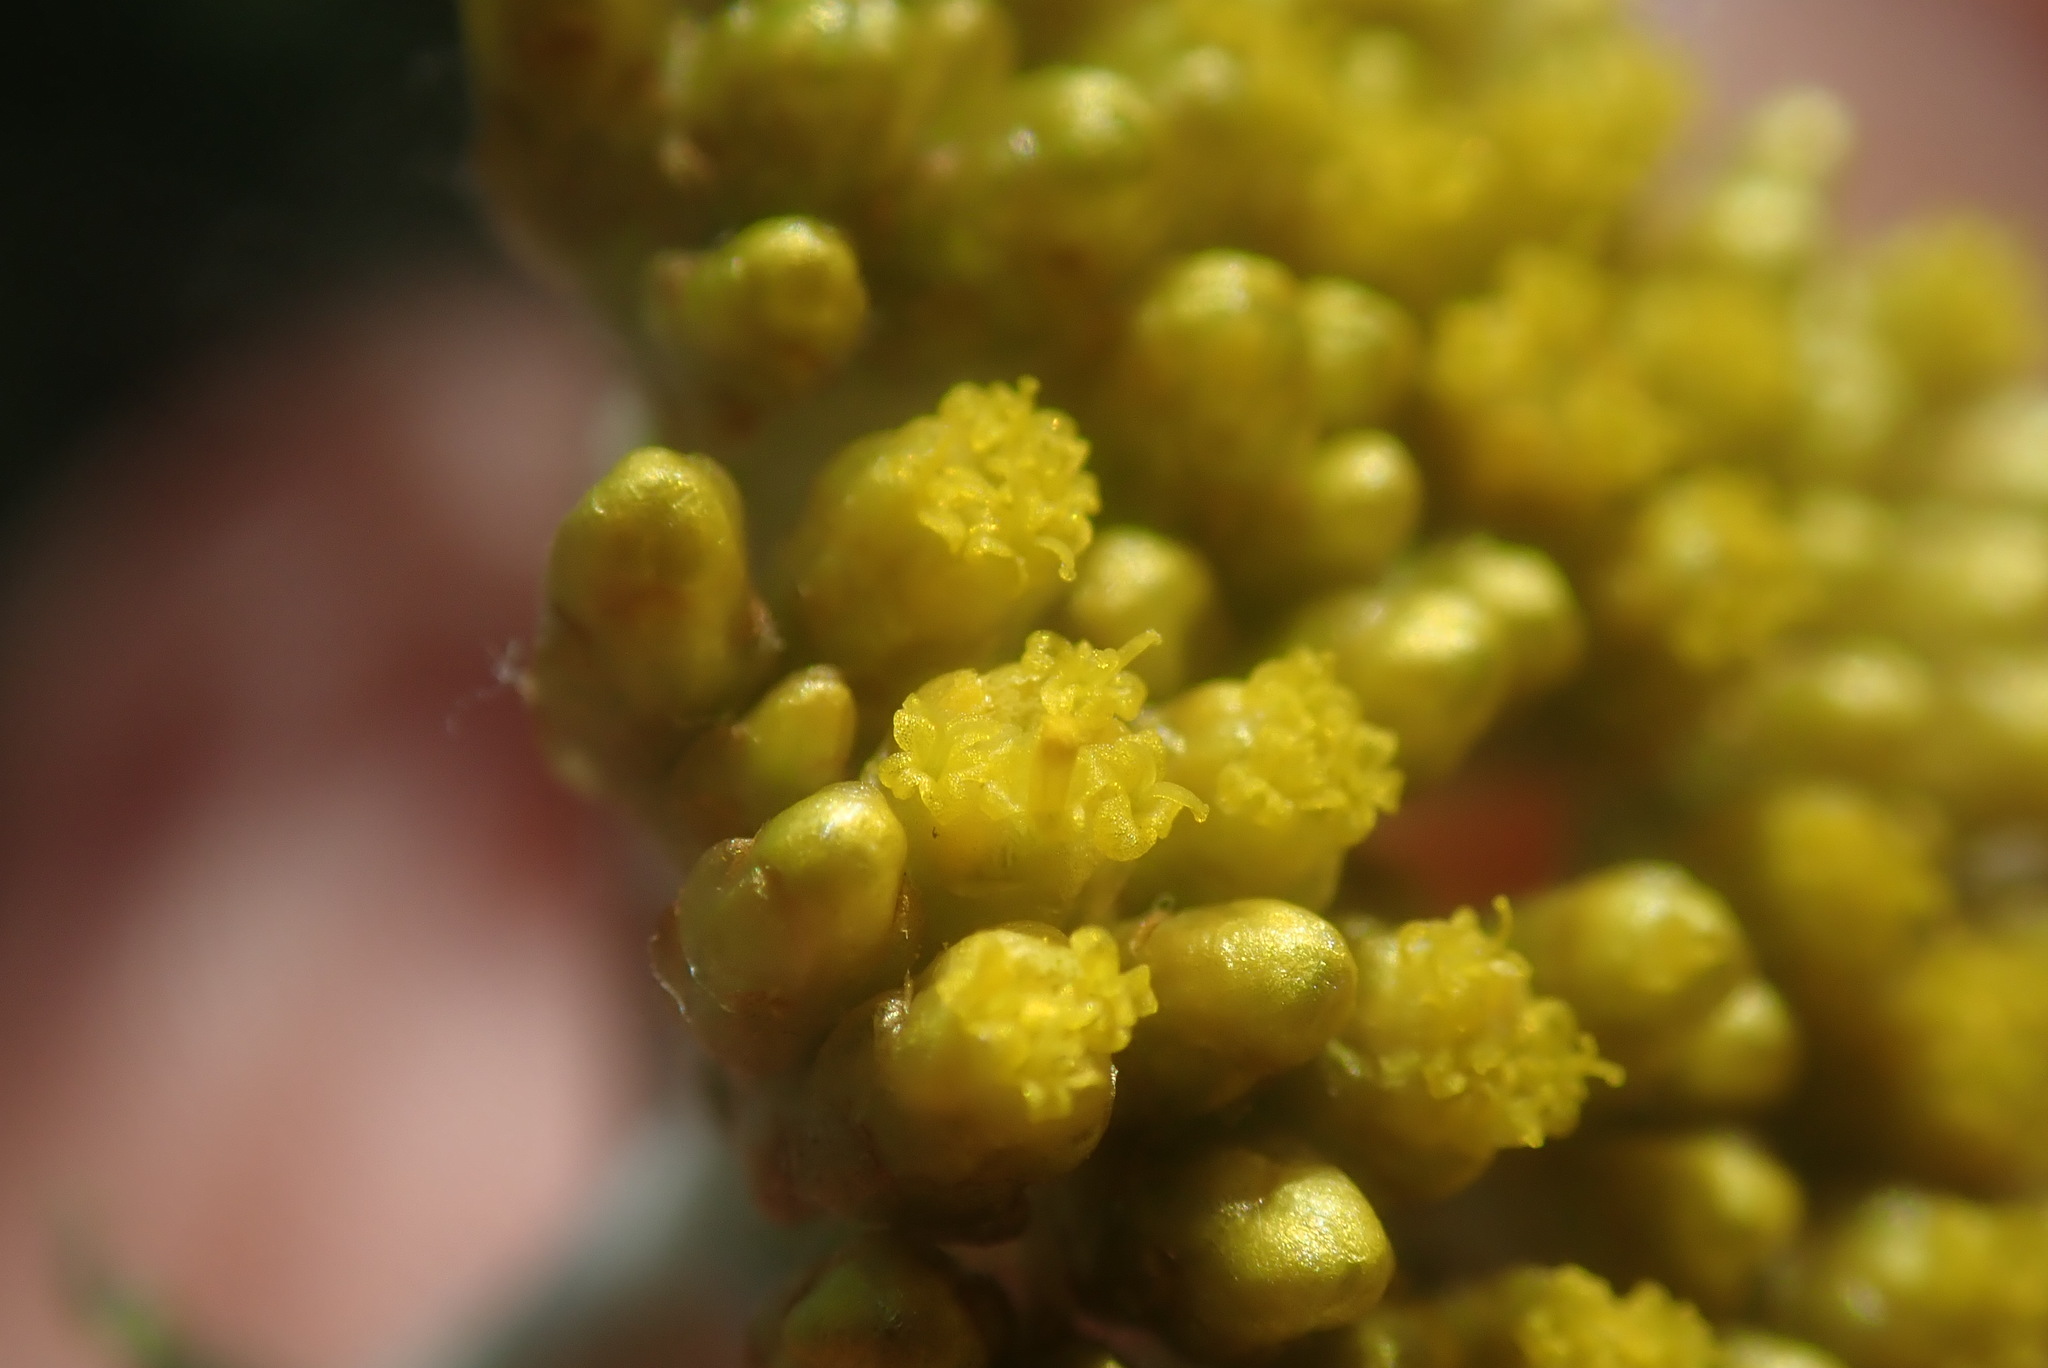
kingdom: Plantae
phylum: Tracheophyta
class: Magnoliopsida
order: Asterales
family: Asteraceae
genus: Helichrysum
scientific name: Helichrysum odoratissimum
